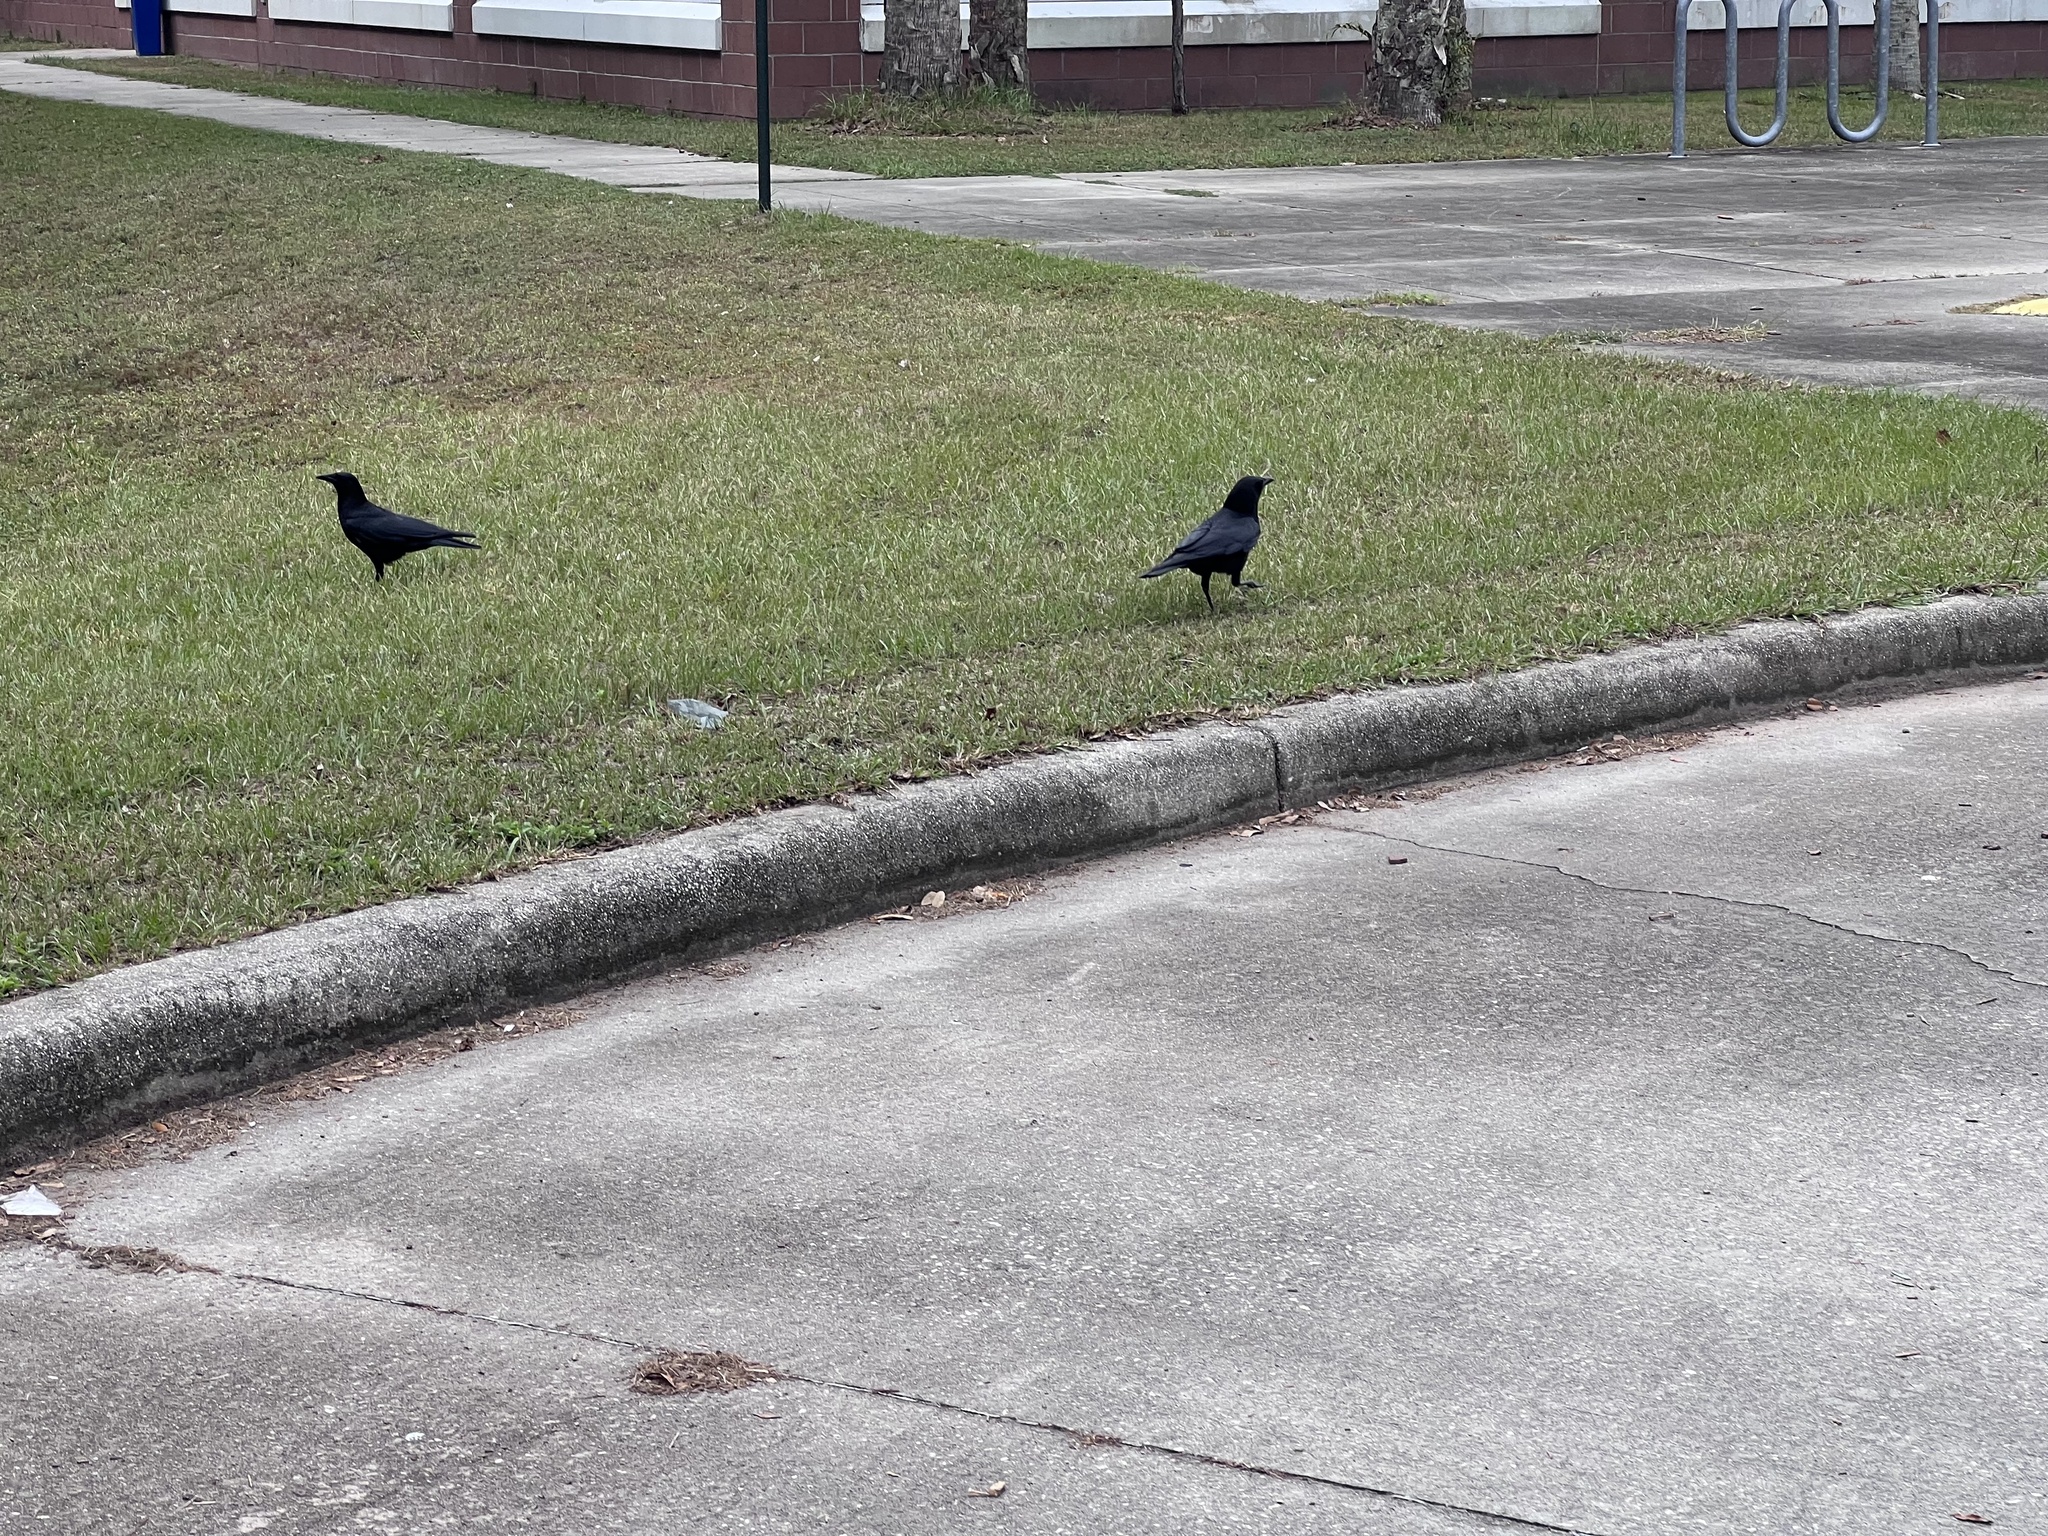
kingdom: Animalia
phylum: Chordata
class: Aves
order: Passeriformes
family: Corvidae
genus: Corvus
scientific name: Corvus
